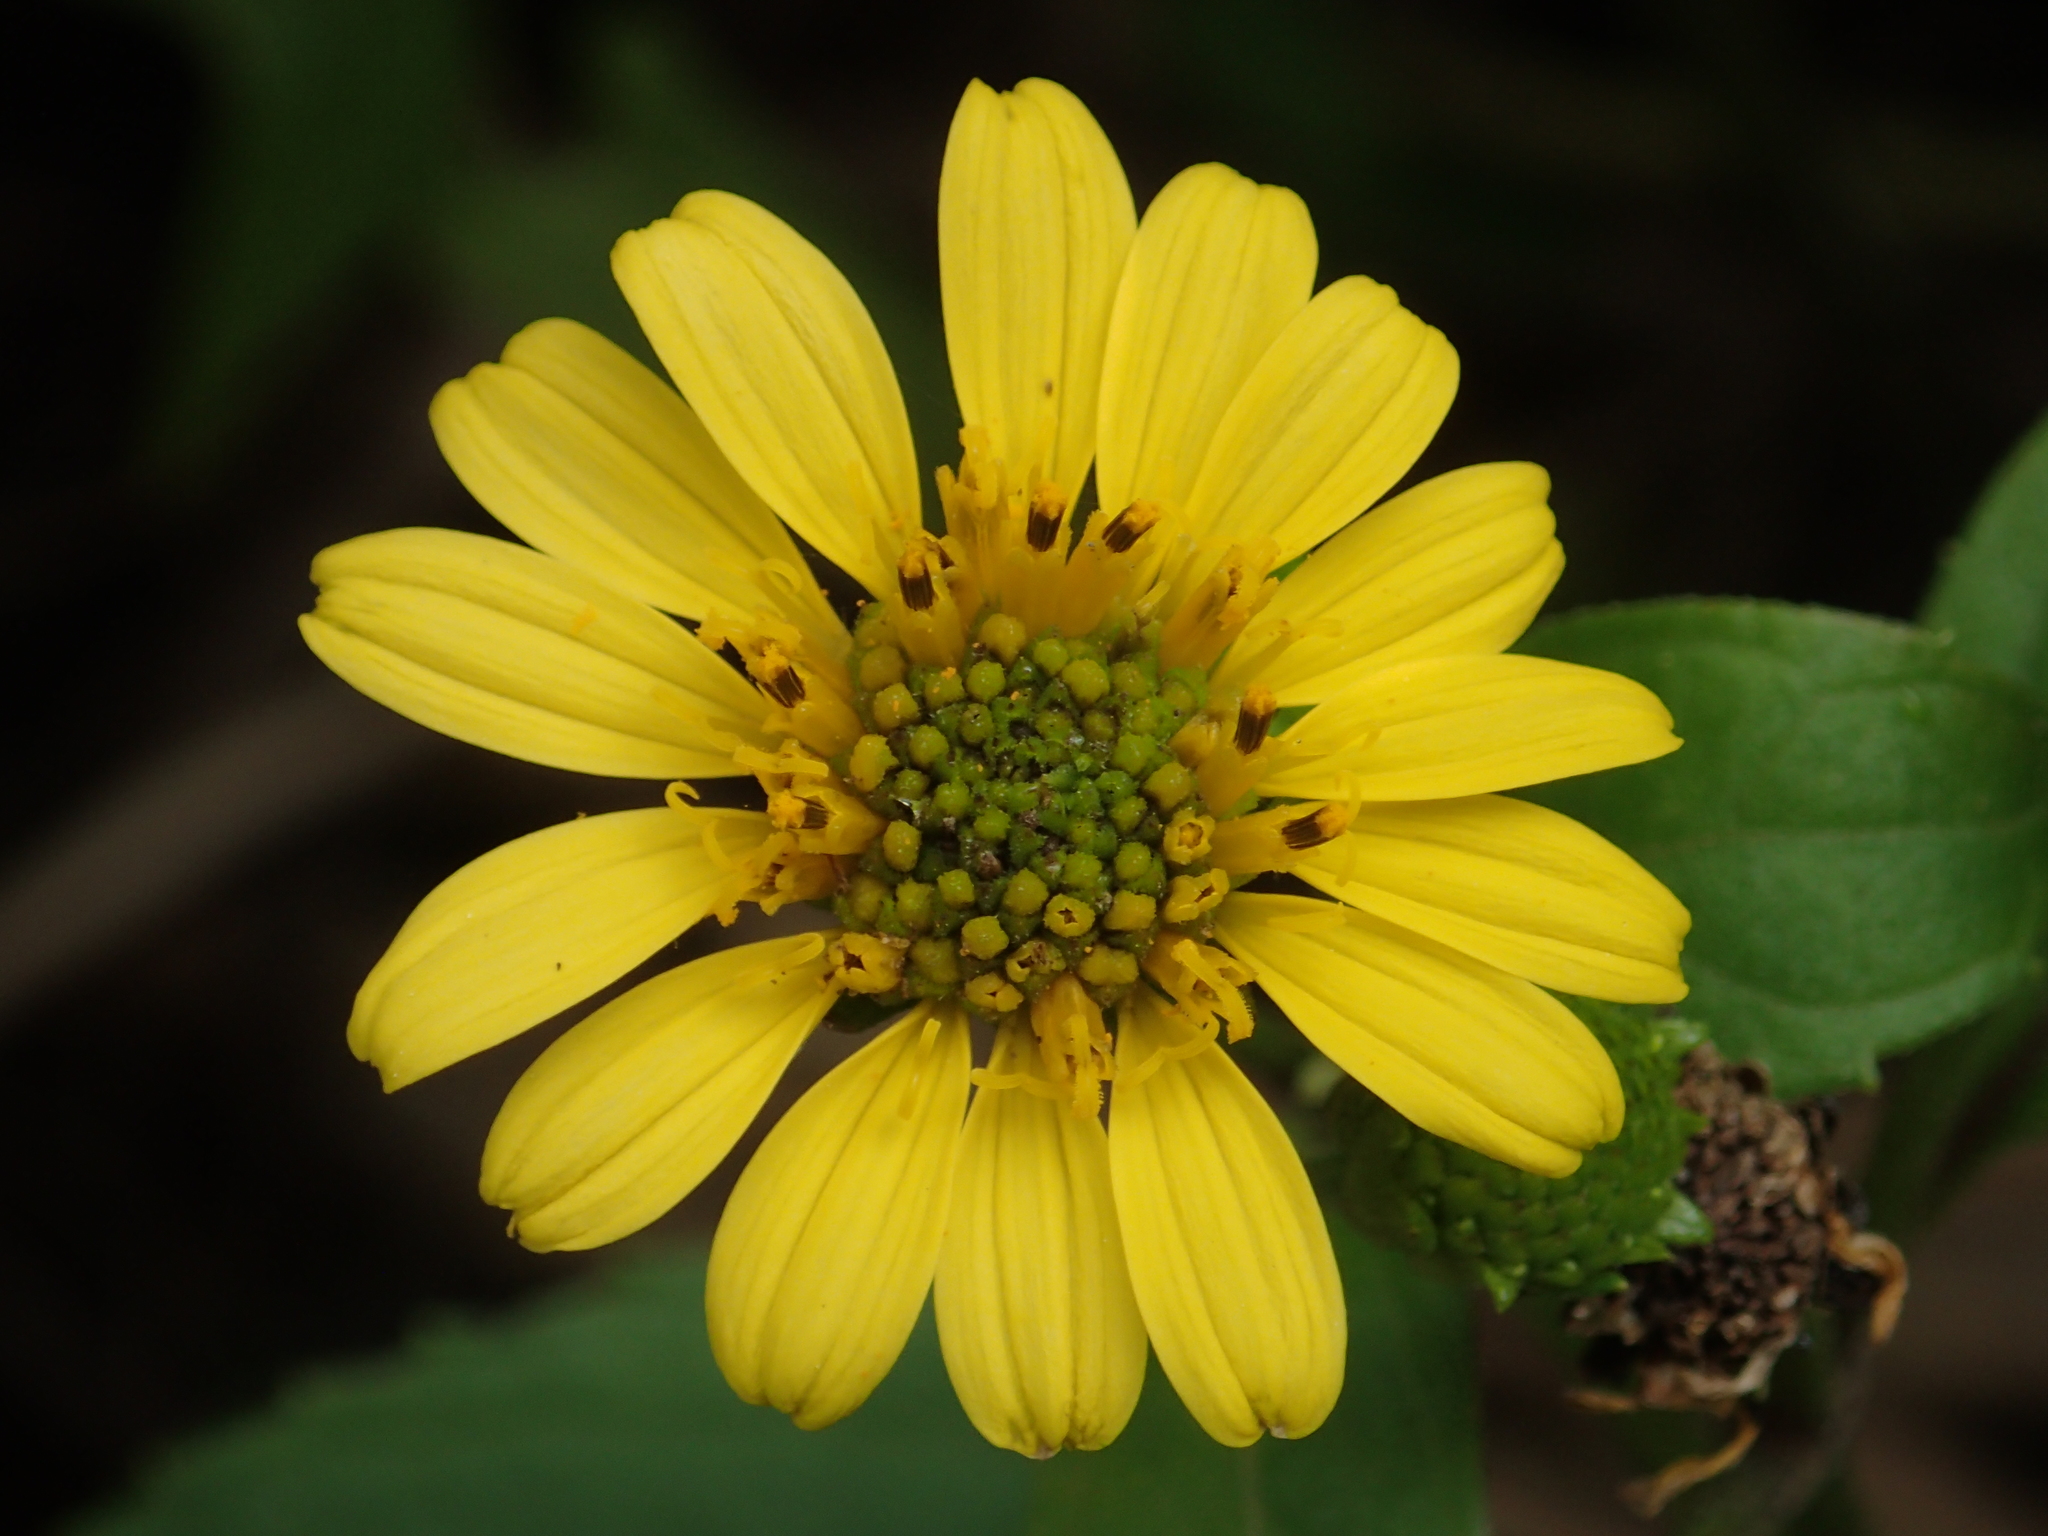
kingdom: Plantae
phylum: Tracheophyta
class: Magnoliopsida
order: Asterales
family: Asteraceae
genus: Wollastonia
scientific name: Wollastonia biflora
